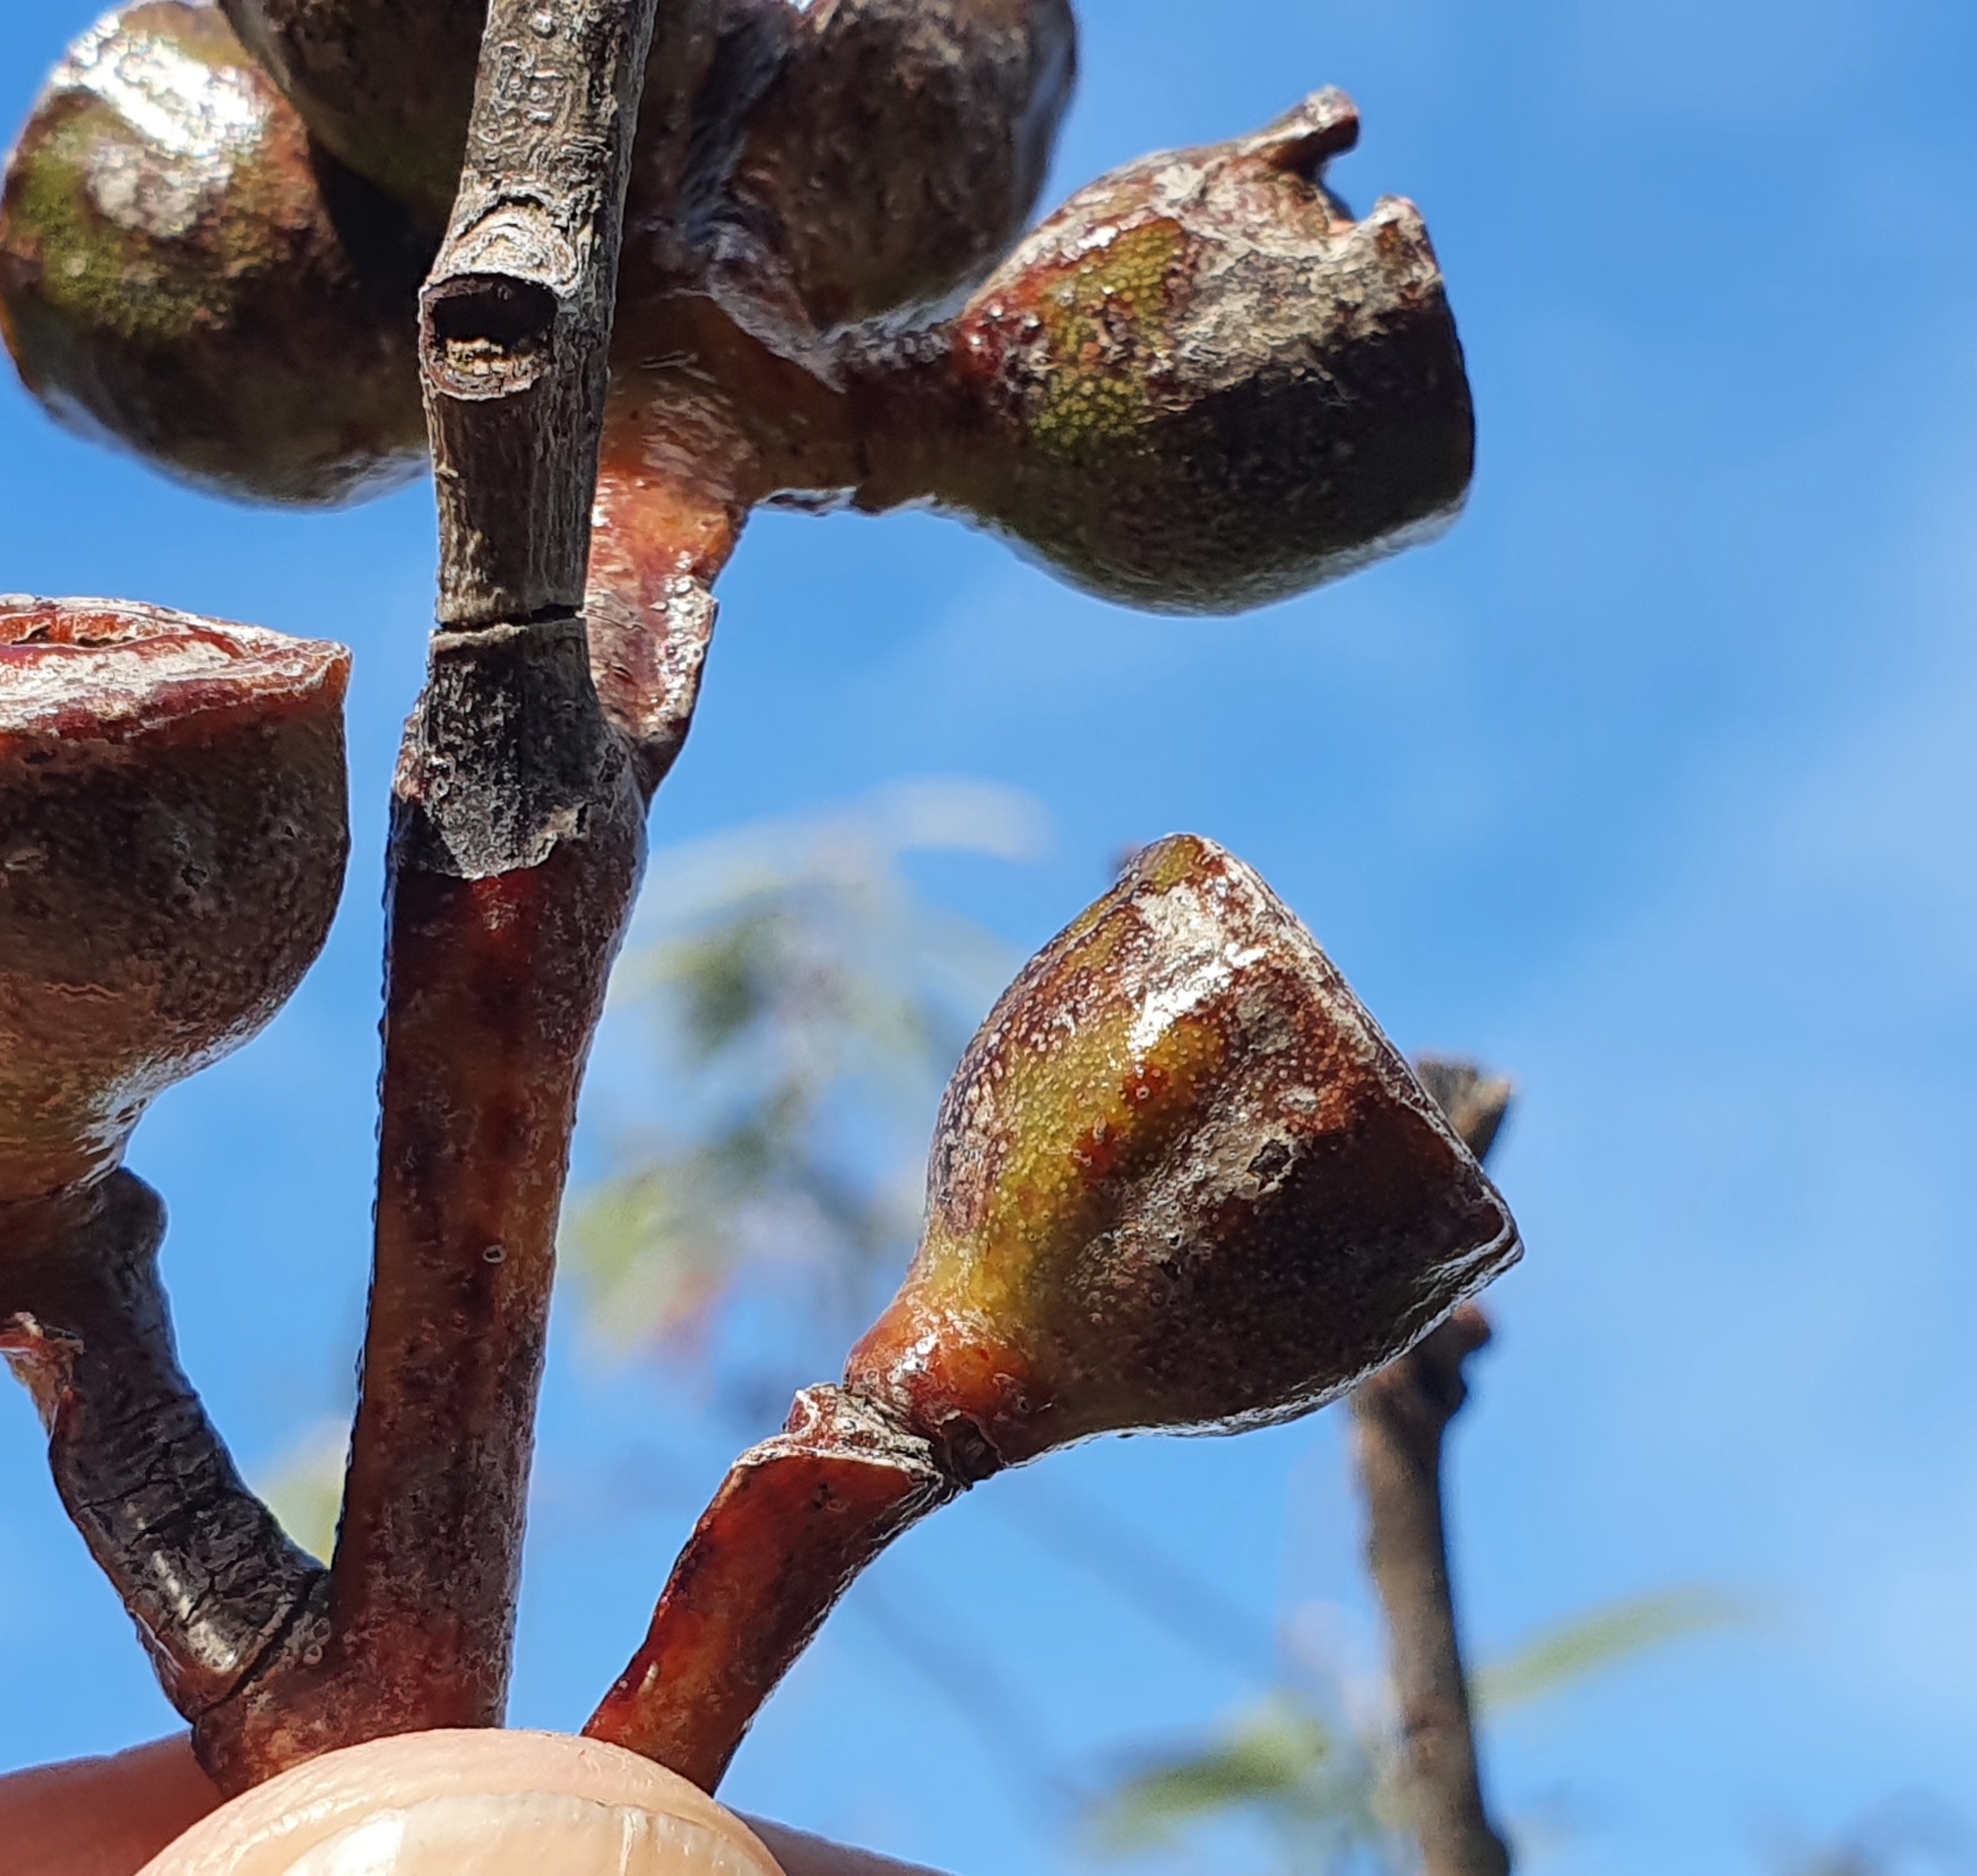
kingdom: Plantae
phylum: Tracheophyta
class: Magnoliopsida
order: Myrtales
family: Myrtaceae
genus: Eucalyptus
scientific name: Eucalyptus luehmanniana
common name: Yellow-top mallee ash
